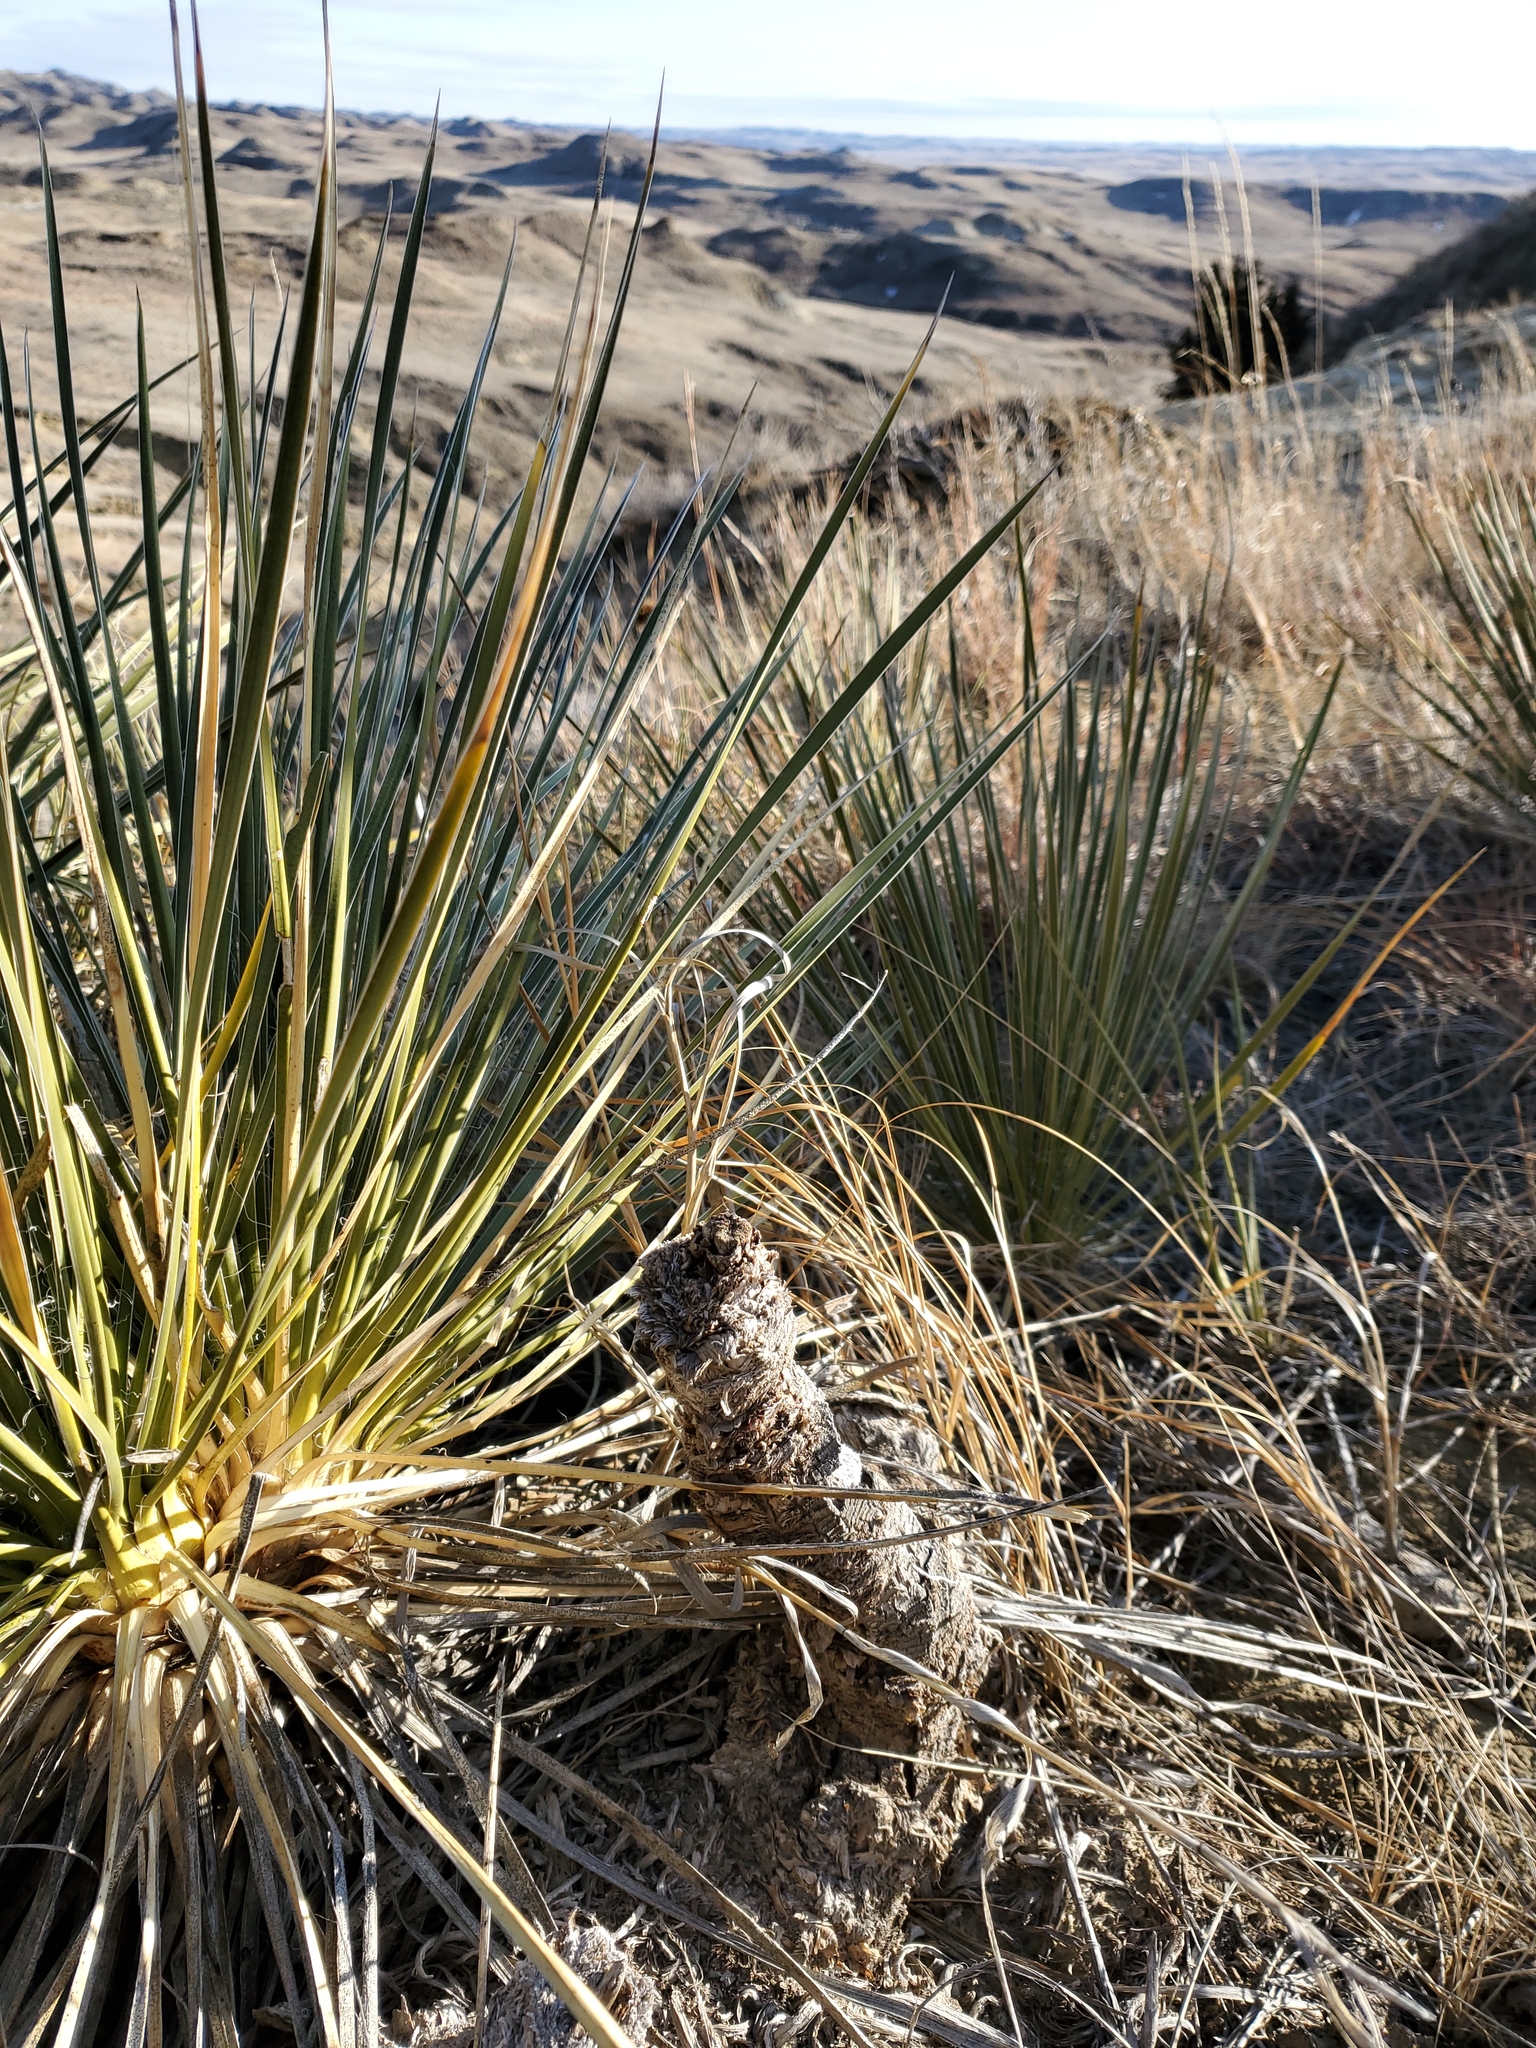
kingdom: Plantae
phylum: Tracheophyta
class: Liliopsida
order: Asparagales
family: Asparagaceae
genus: Yucca
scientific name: Yucca glauca
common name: Great plains yucca
